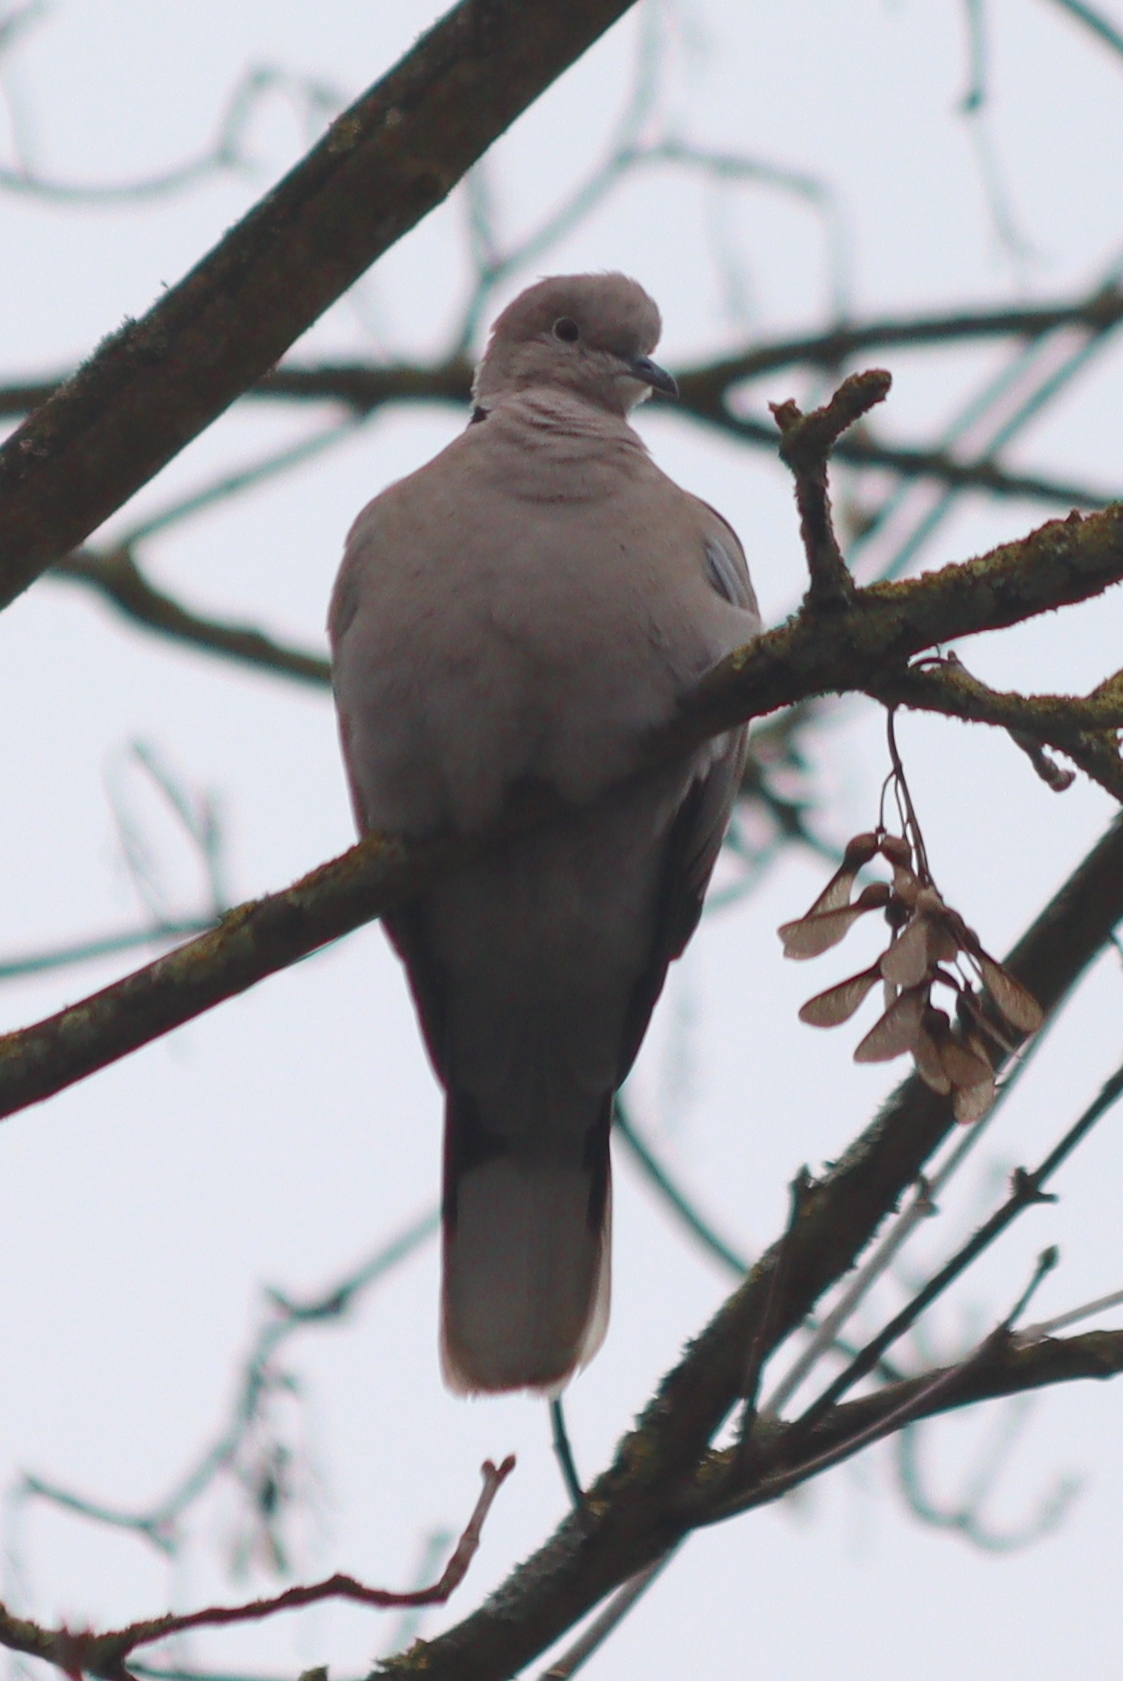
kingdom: Animalia
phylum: Chordata
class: Aves
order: Columbiformes
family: Columbidae
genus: Streptopelia
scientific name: Streptopelia decaocto
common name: Eurasian collared dove
